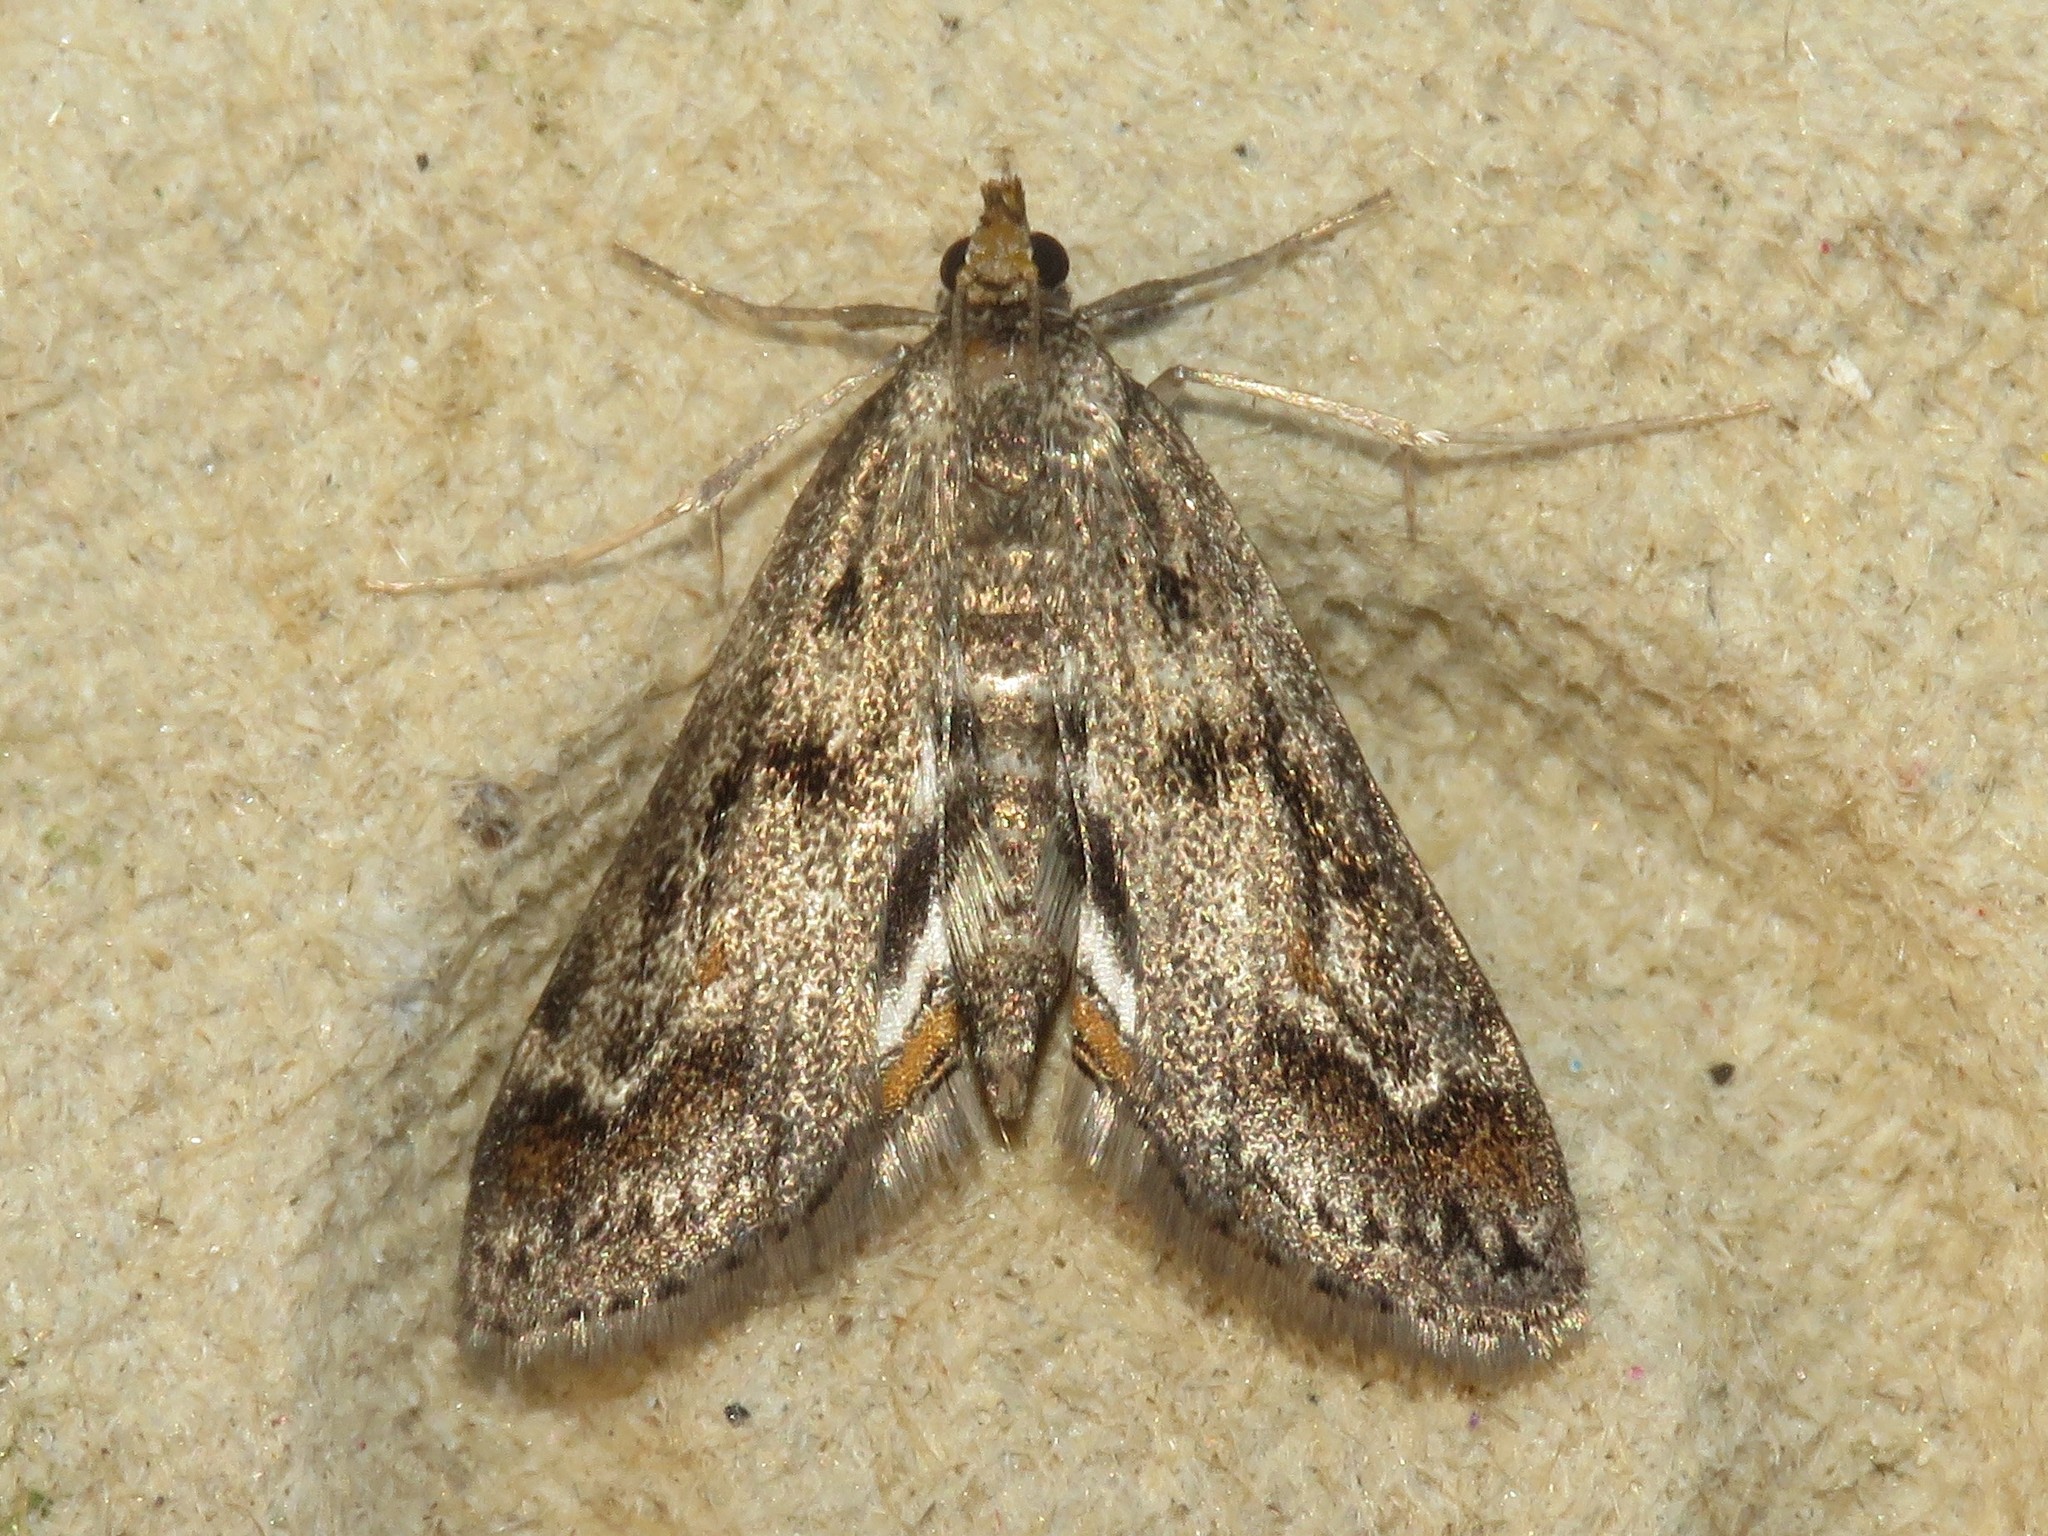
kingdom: Animalia
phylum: Arthropoda
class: Insecta
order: Lepidoptera
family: Crambidae
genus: Parapoynx
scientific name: Parapoynx obscuralis
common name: American china-mark
